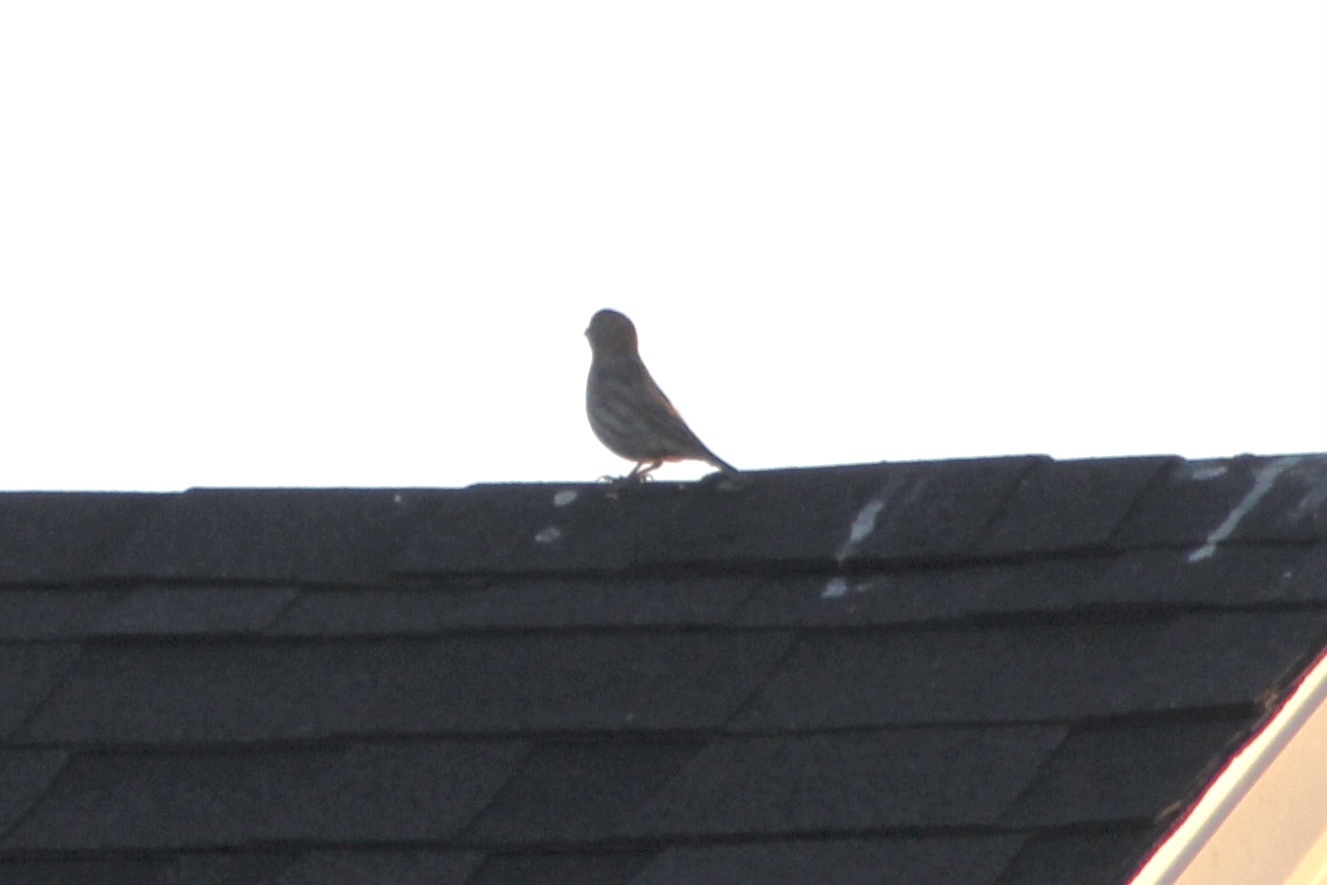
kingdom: Animalia
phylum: Chordata
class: Aves
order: Passeriformes
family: Fringillidae
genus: Haemorhous
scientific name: Haemorhous mexicanus
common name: House finch
